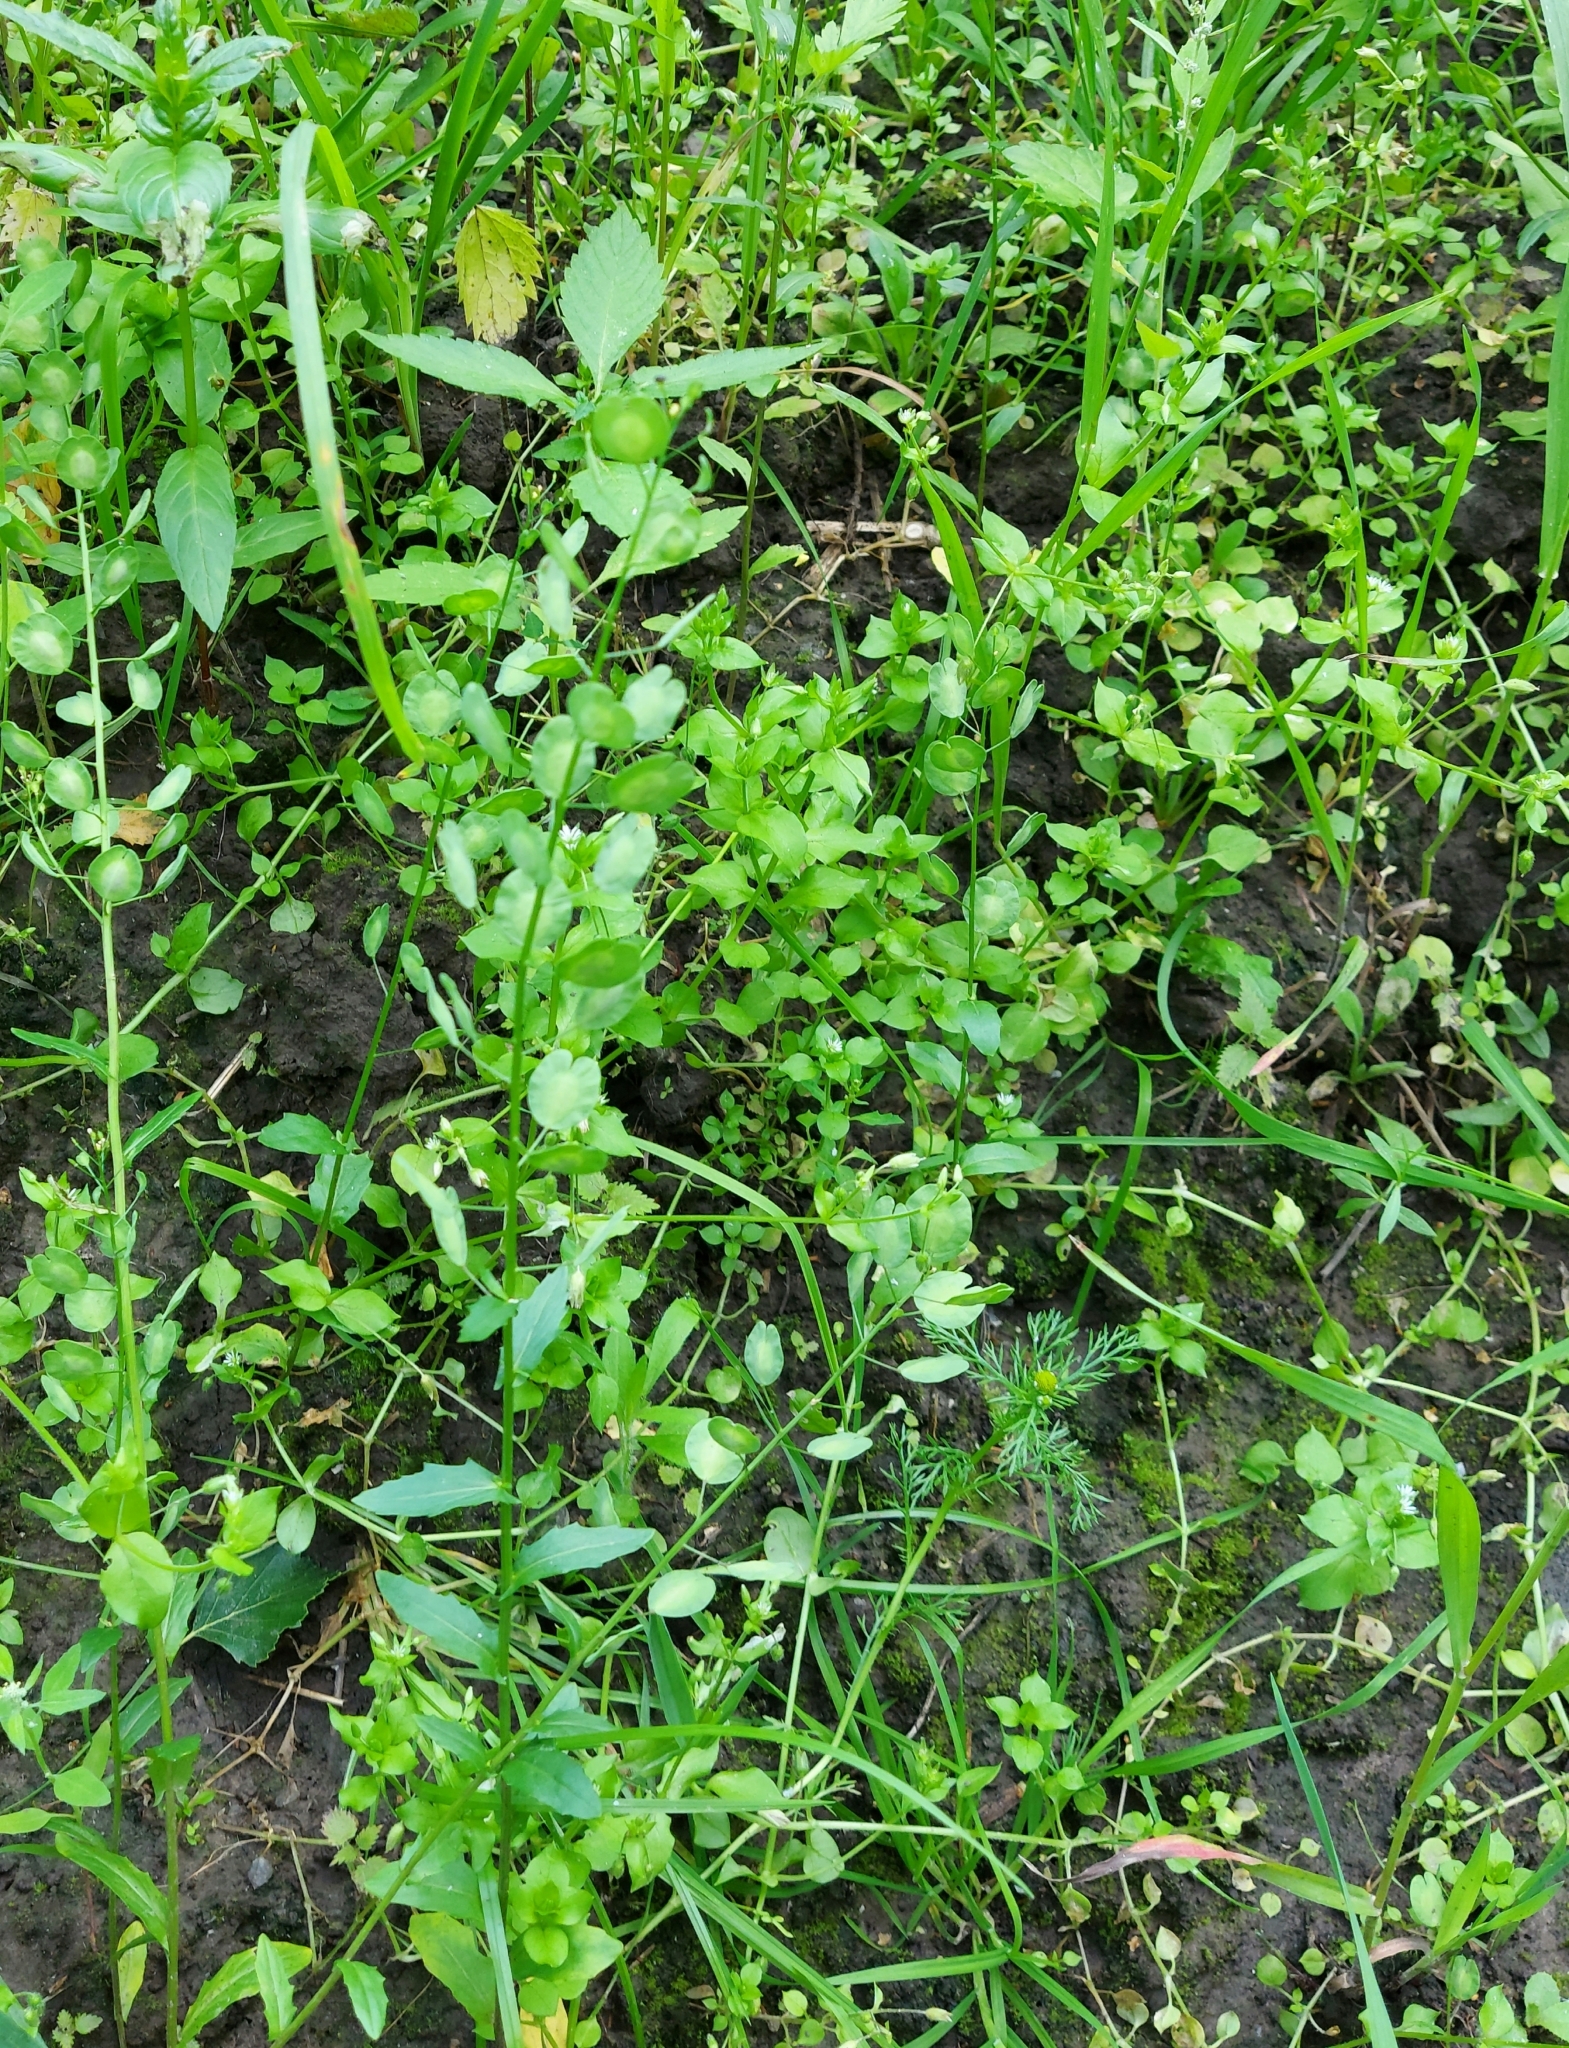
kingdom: Plantae
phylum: Tracheophyta
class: Magnoliopsida
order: Brassicales
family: Brassicaceae
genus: Thlaspi
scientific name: Thlaspi arvense
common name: Field pennycress
